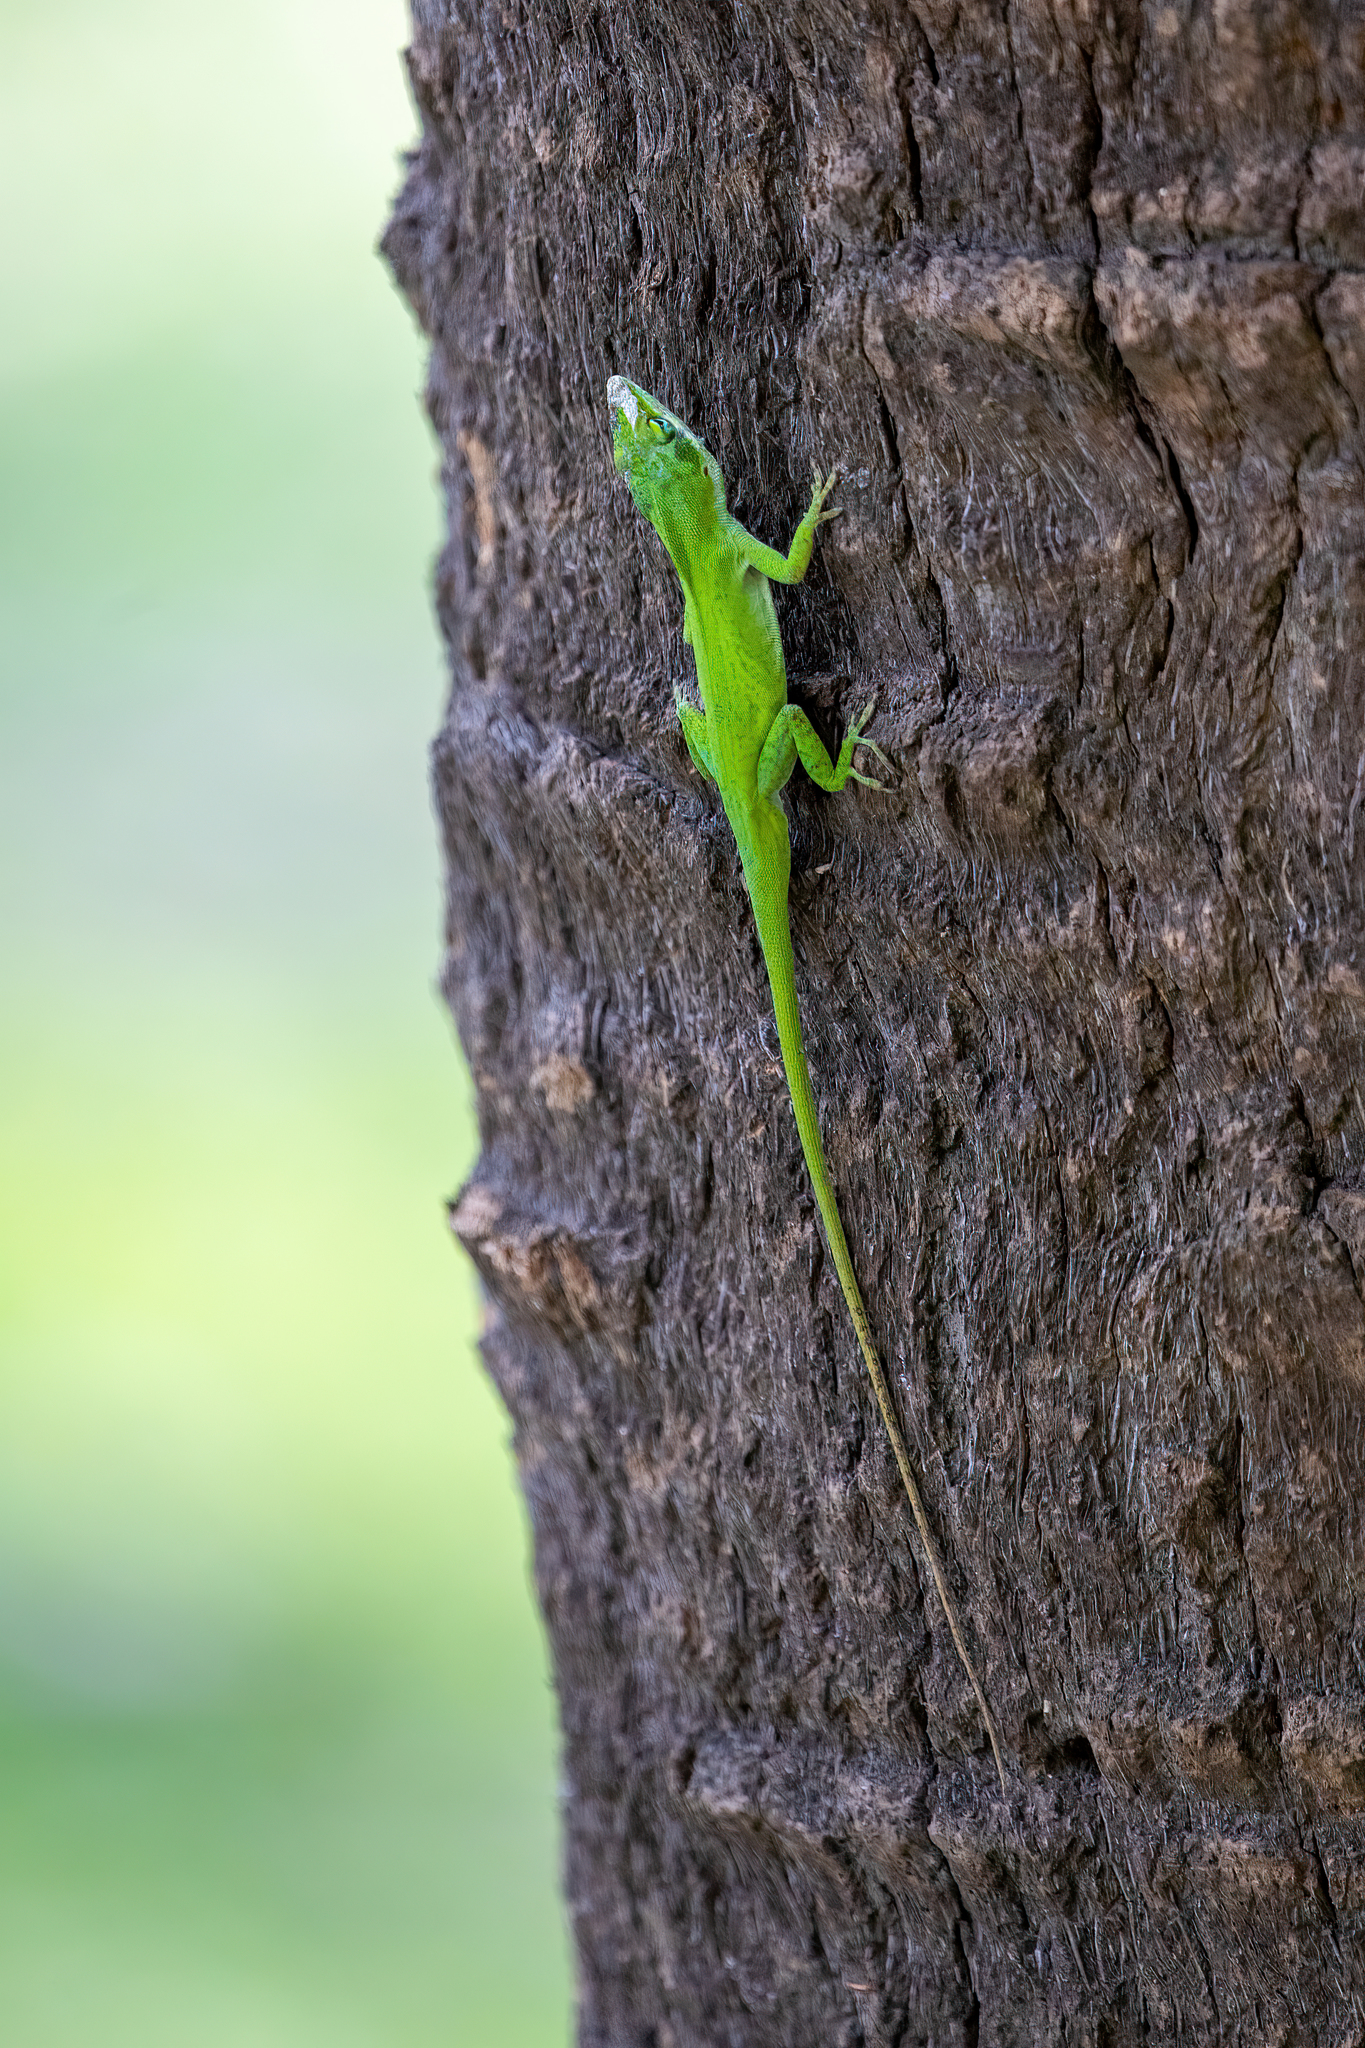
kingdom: Animalia
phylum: Chordata
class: Squamata
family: Dactyloidae
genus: Anolis
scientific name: Anolis carolinensis
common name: Green anole
